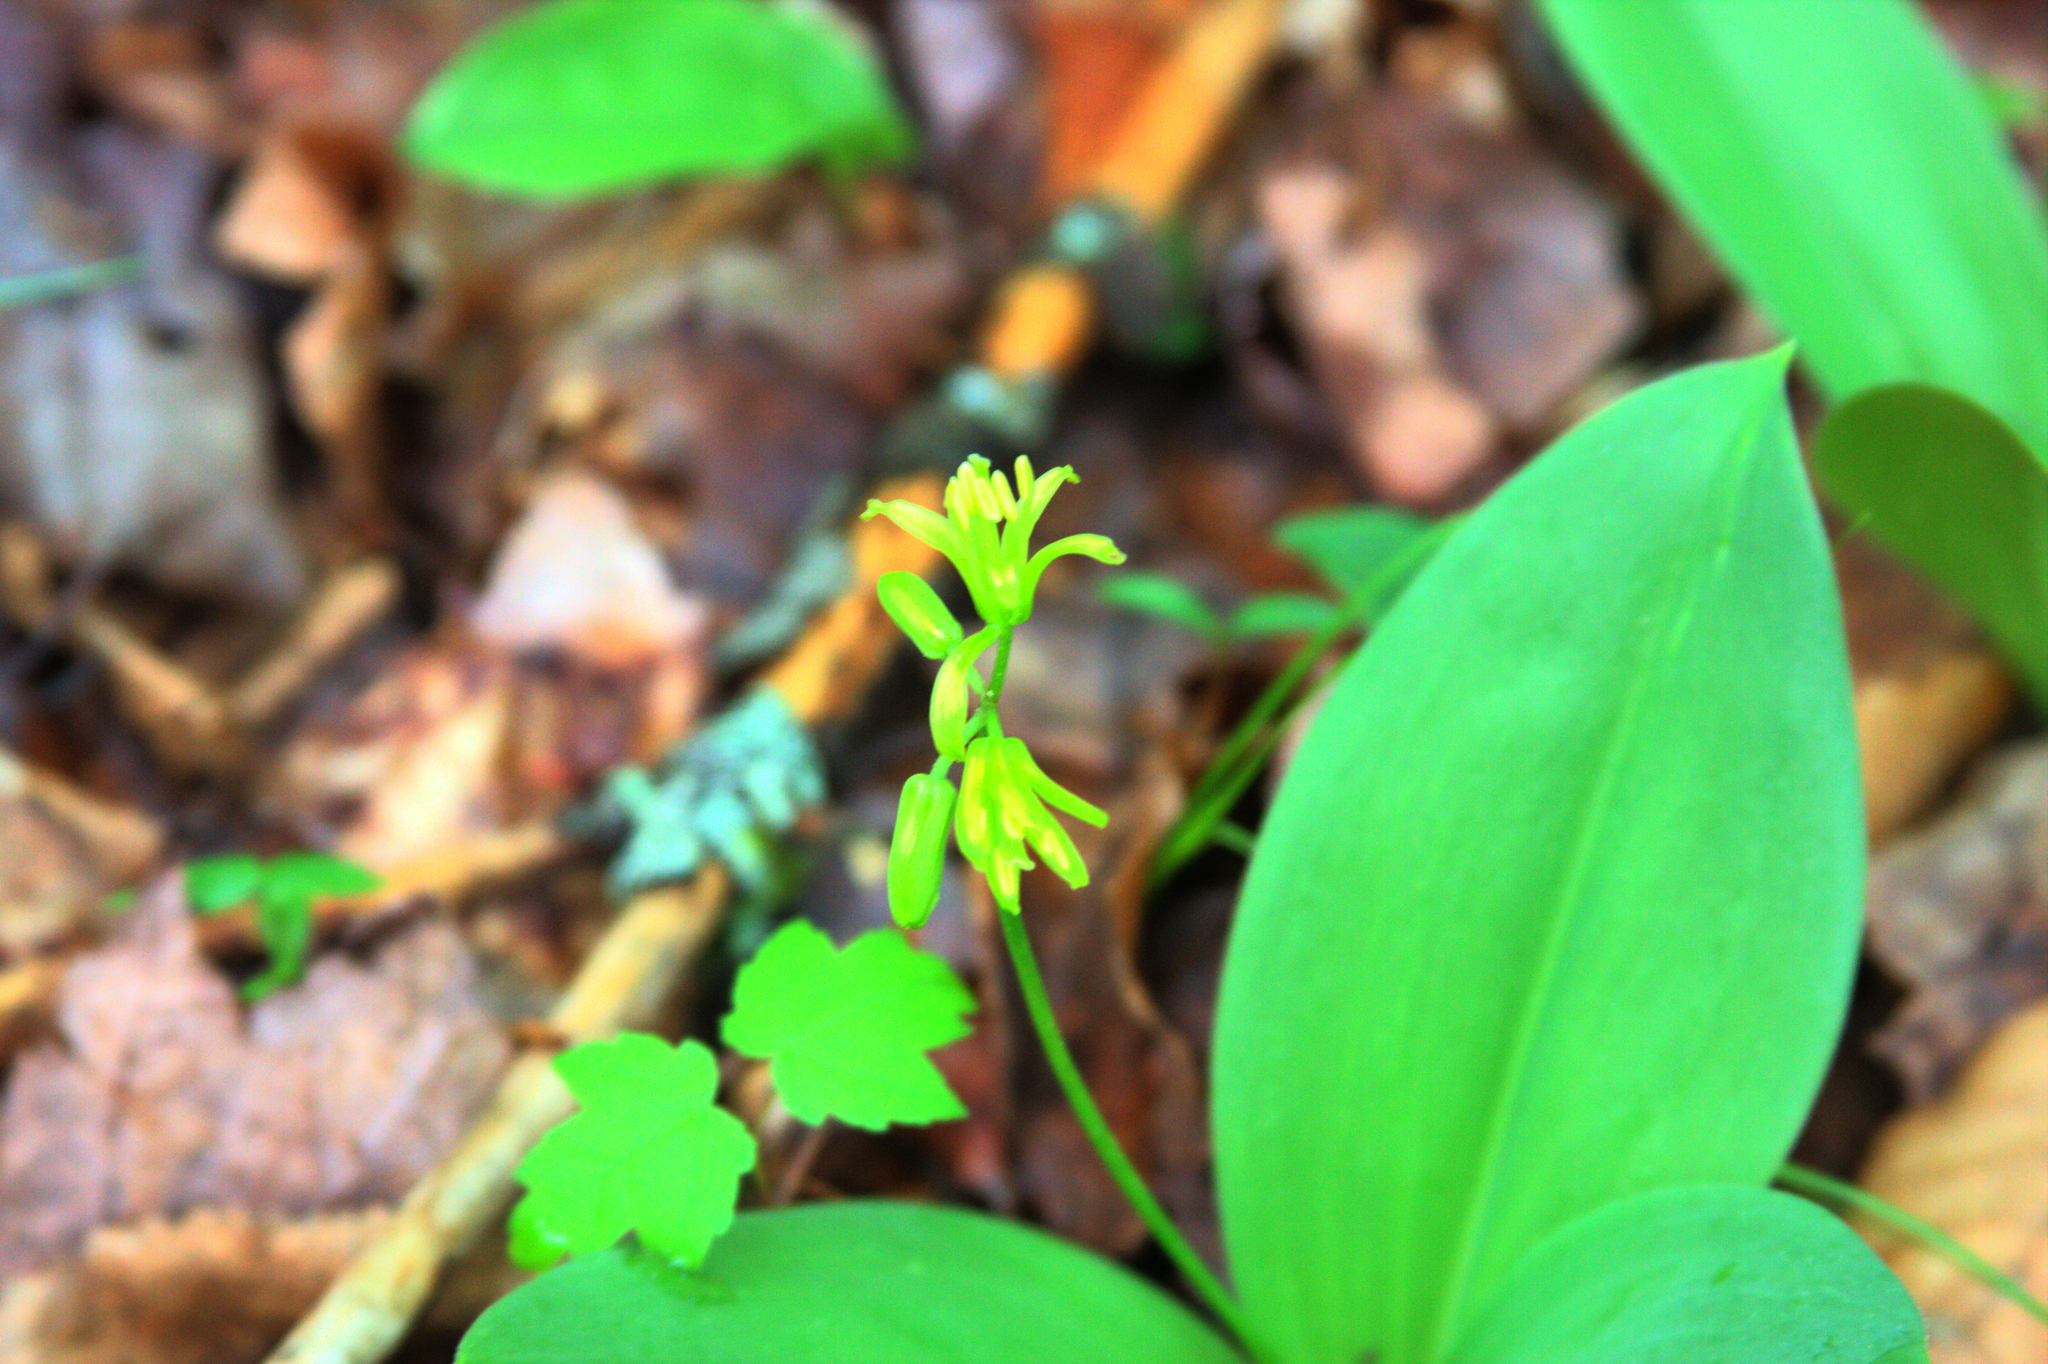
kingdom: Plantae
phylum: Tracheophyta
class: Liliopsida
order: Liliales
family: Liliaceae
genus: Clintonia
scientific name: Clintonia borealis
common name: Yellow clintonia
